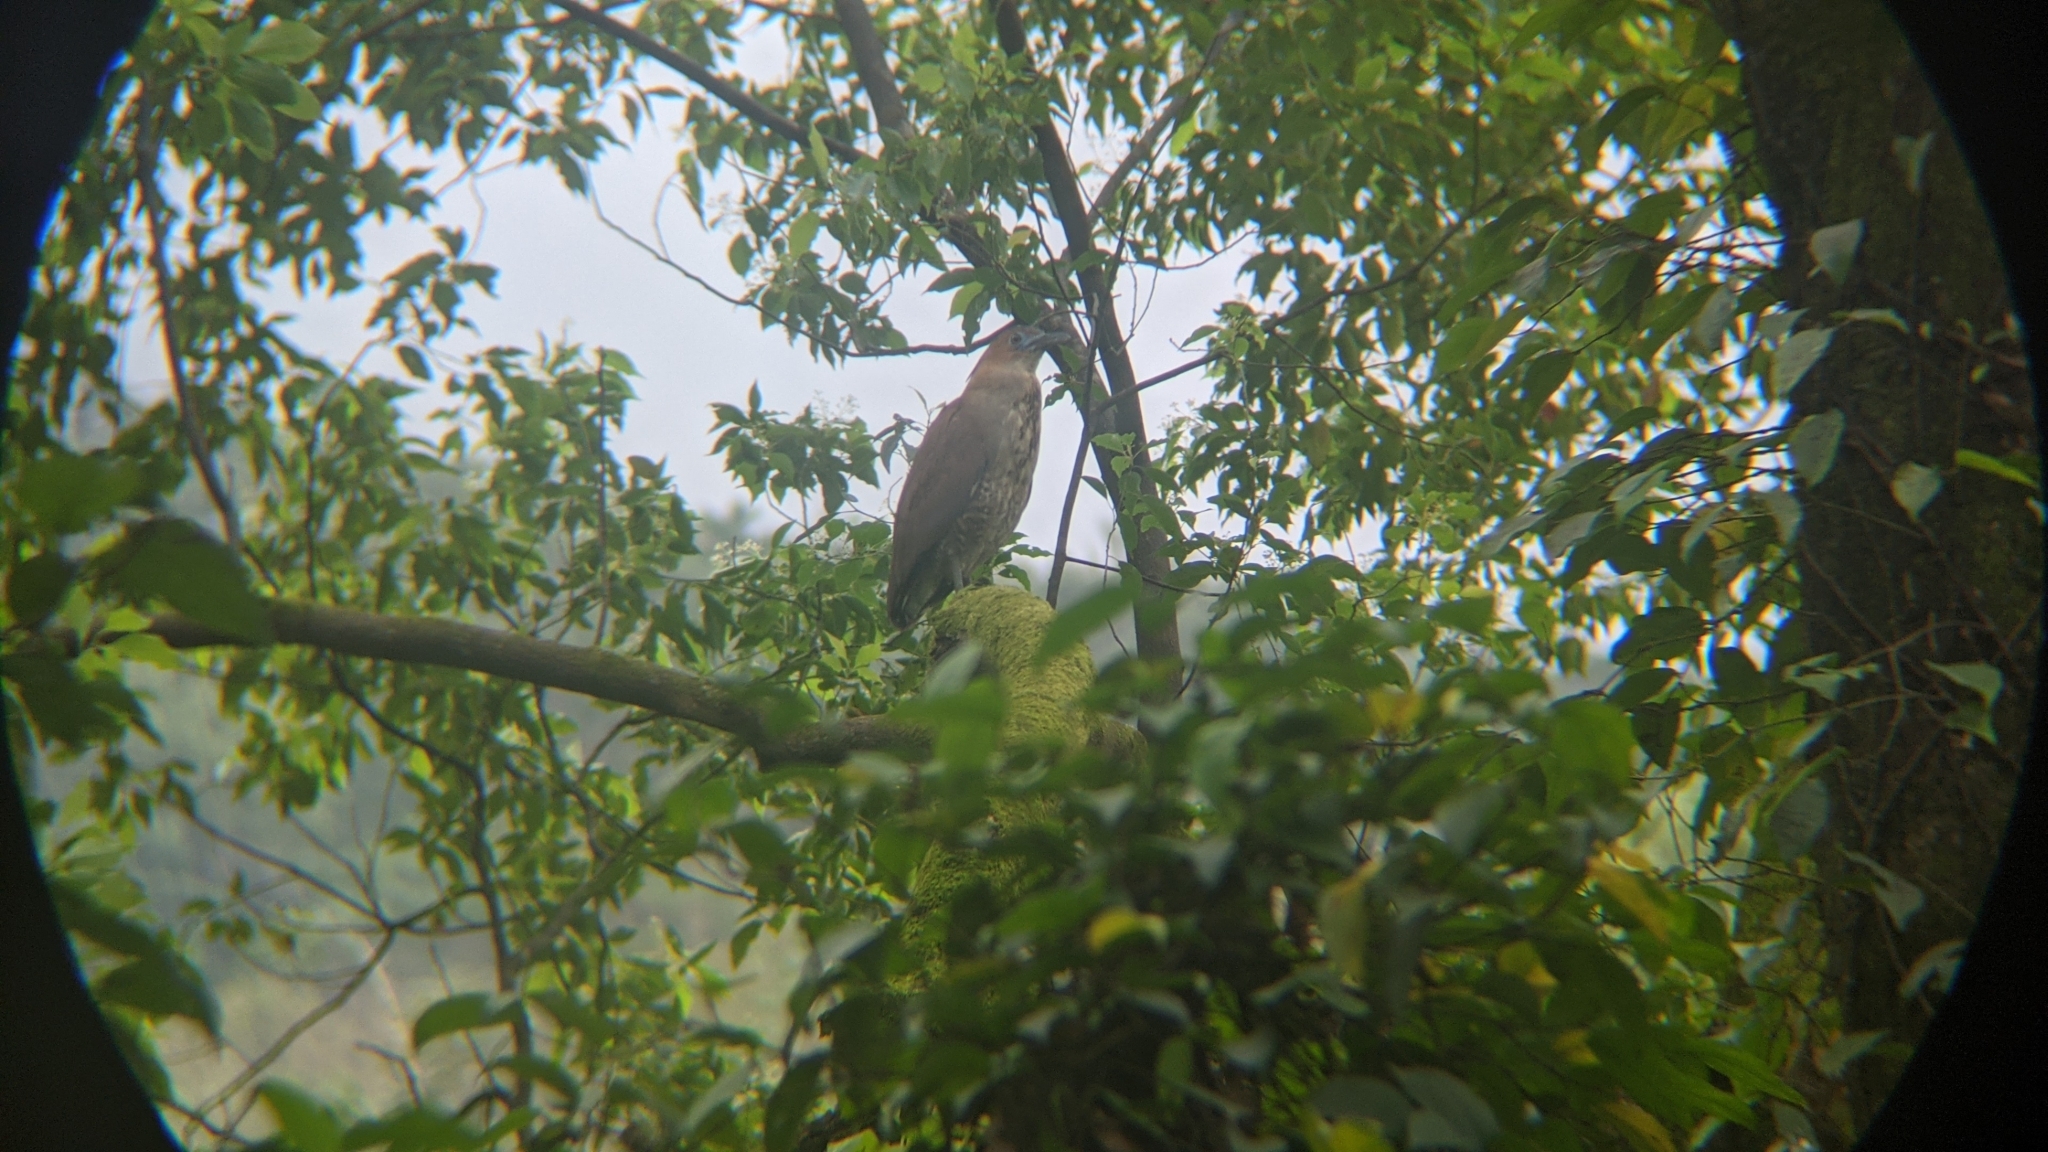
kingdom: Animalia
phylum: Chordata
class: Aves
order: Pelecaniformes
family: Ardeidae
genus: Gorsachius
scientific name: Gorsachius melanolophus
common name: Malayan night heron
